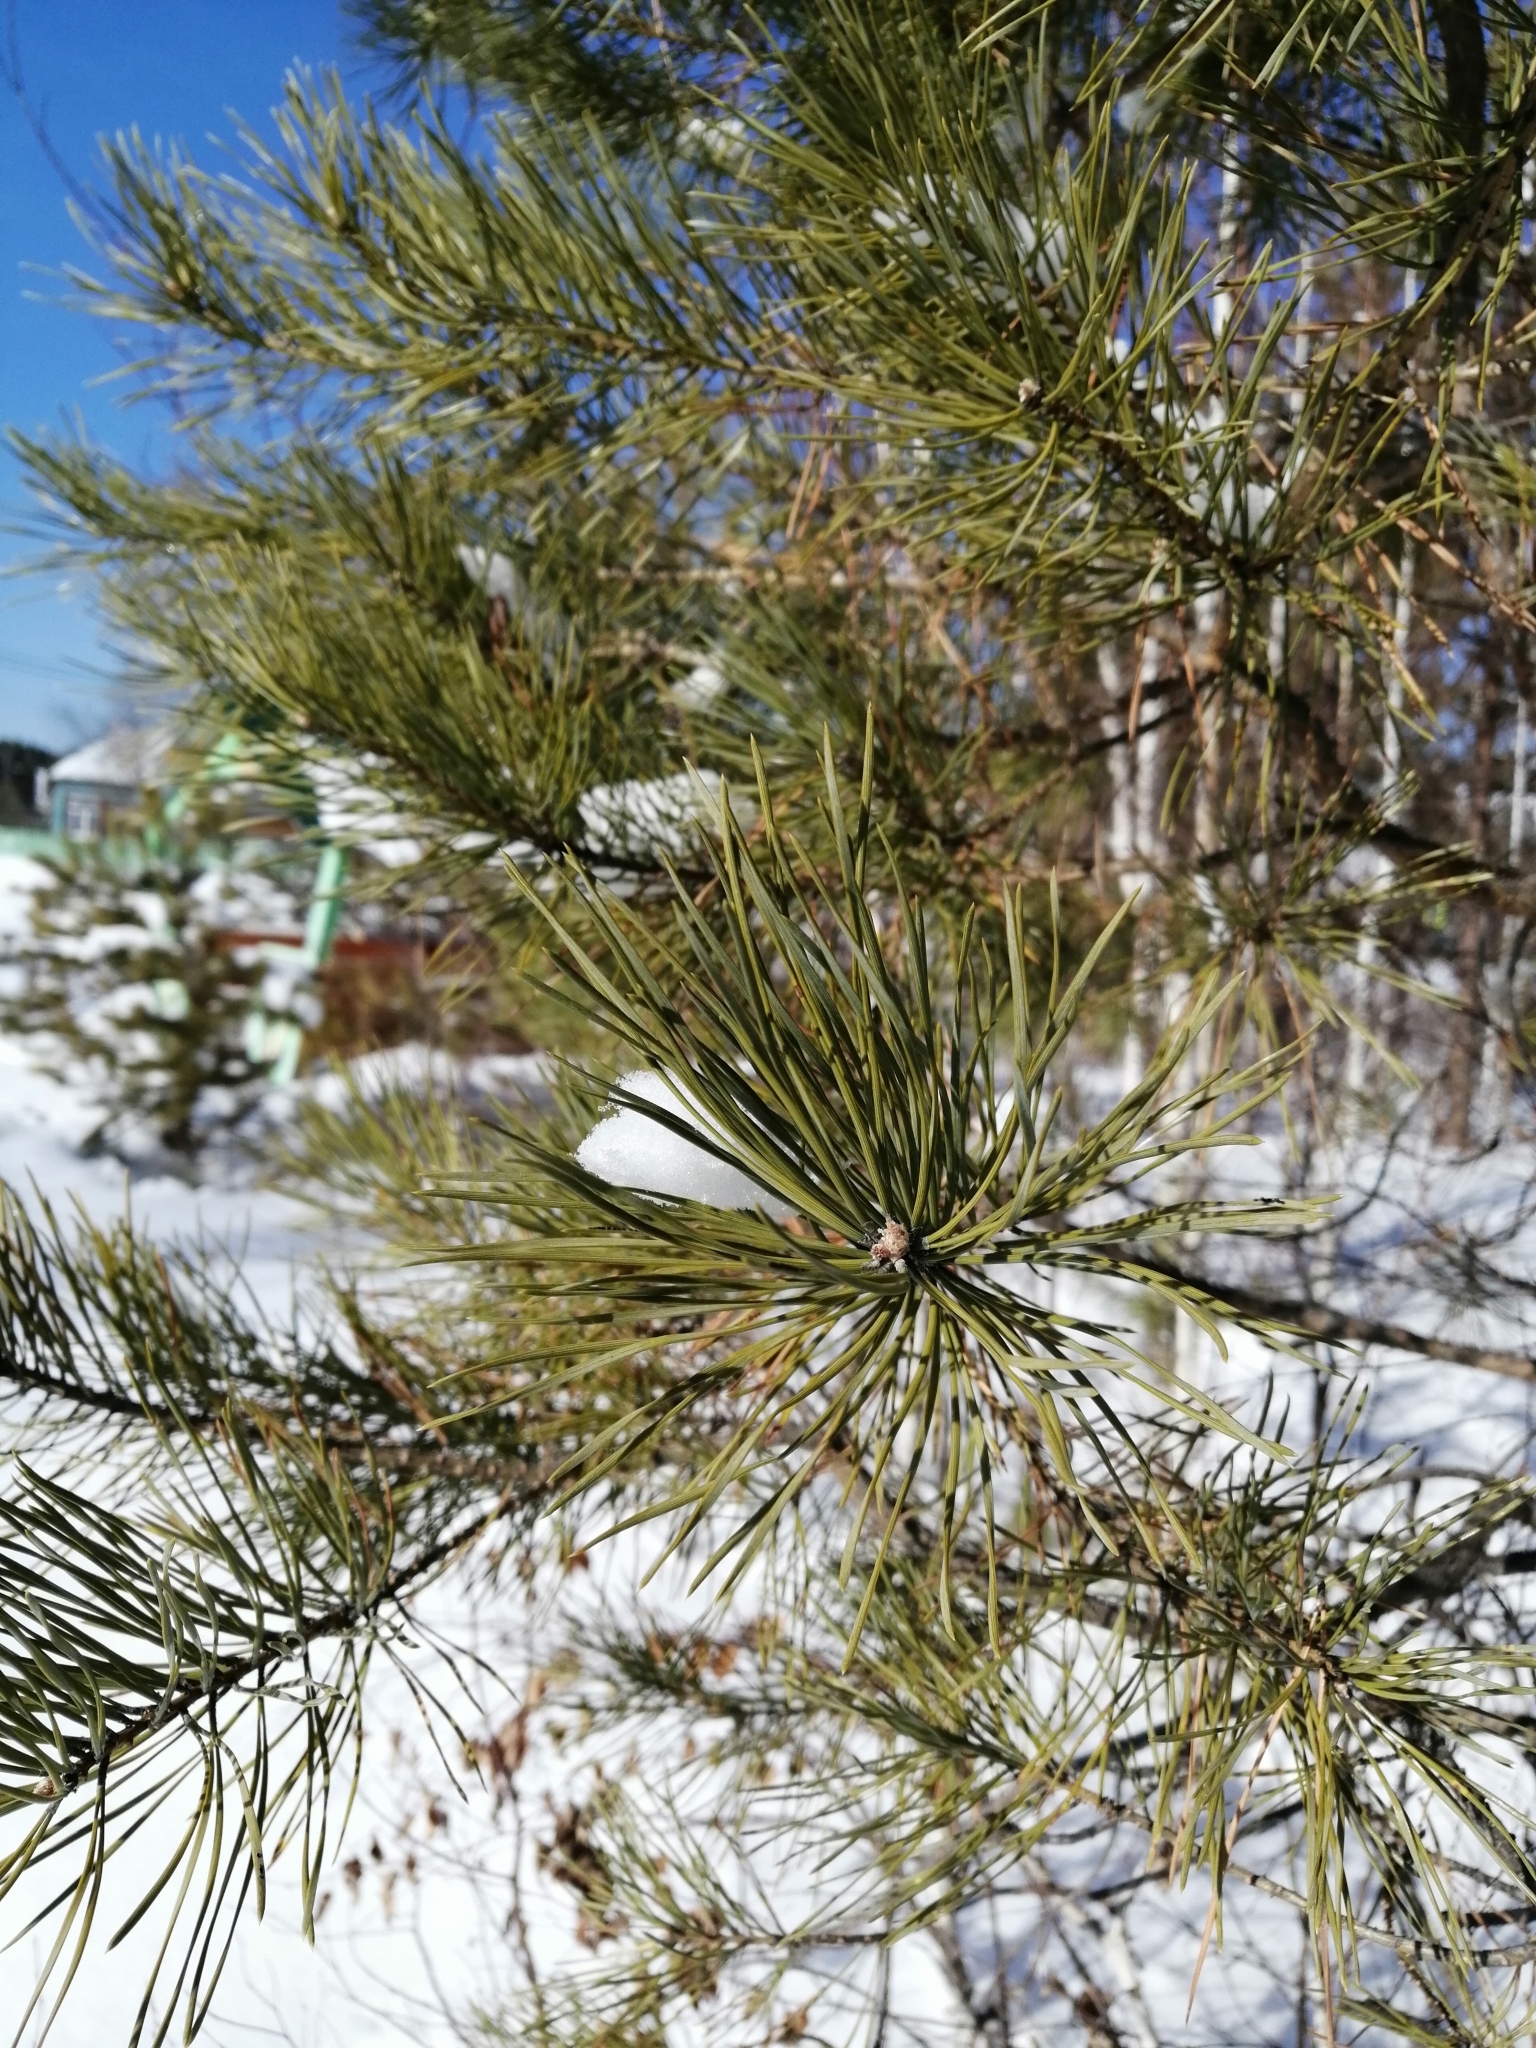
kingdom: Plantae
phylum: Tracheophyta
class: Pinopsida
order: Pinales
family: Pinaceae
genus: Pinus
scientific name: Pinus sylvestris
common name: Scots pine
